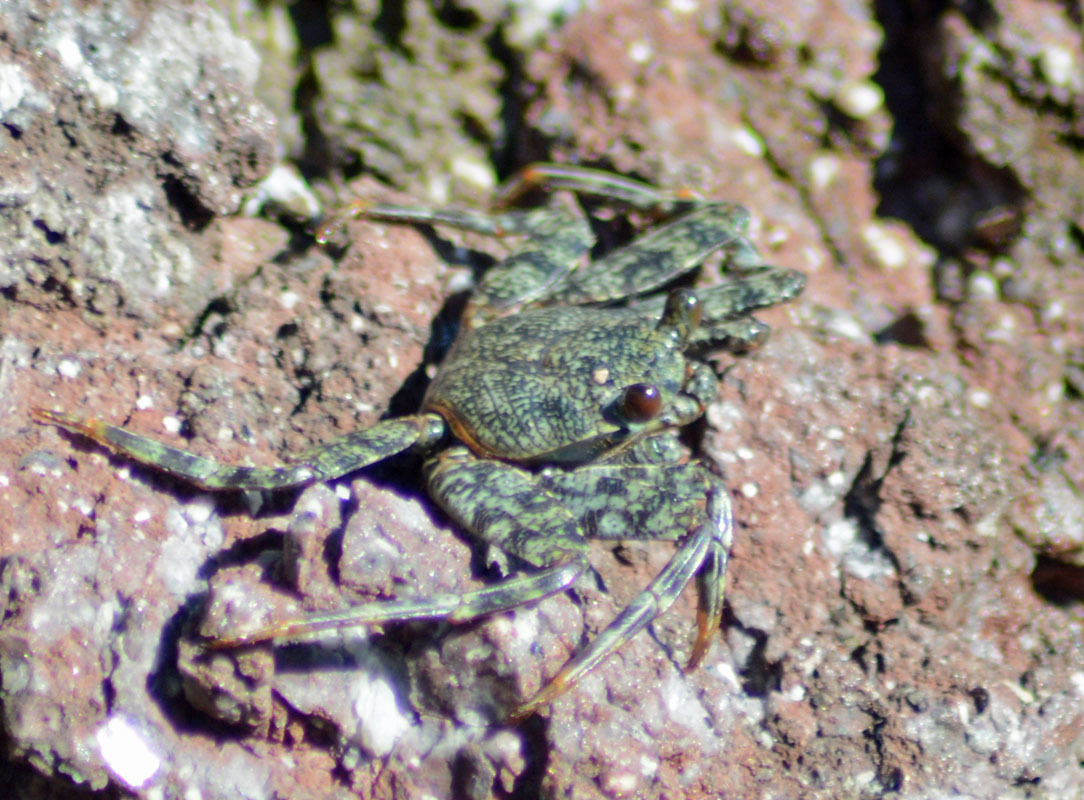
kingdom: Animalia
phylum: Arthropoda
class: Malacostraca
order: Decapoda
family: Grapsidae
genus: Grapsus
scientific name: Grapsus grapsus
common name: Sally lightfoot
